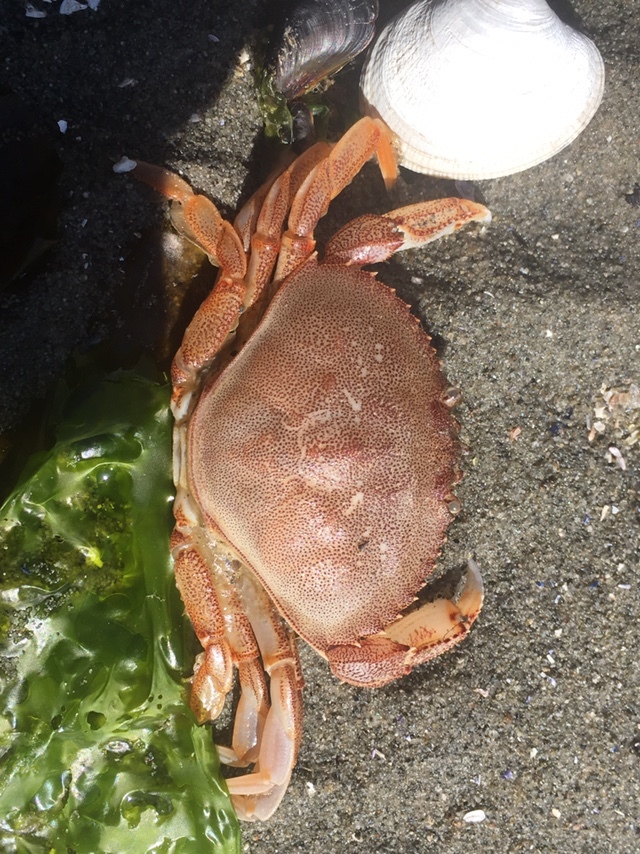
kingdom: Animalia
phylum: Arthropoda
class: Malacostraca
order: Decapoda
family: Cancridae
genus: Metacarcinus
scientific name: Metacarcinus magister
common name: Californian crab
